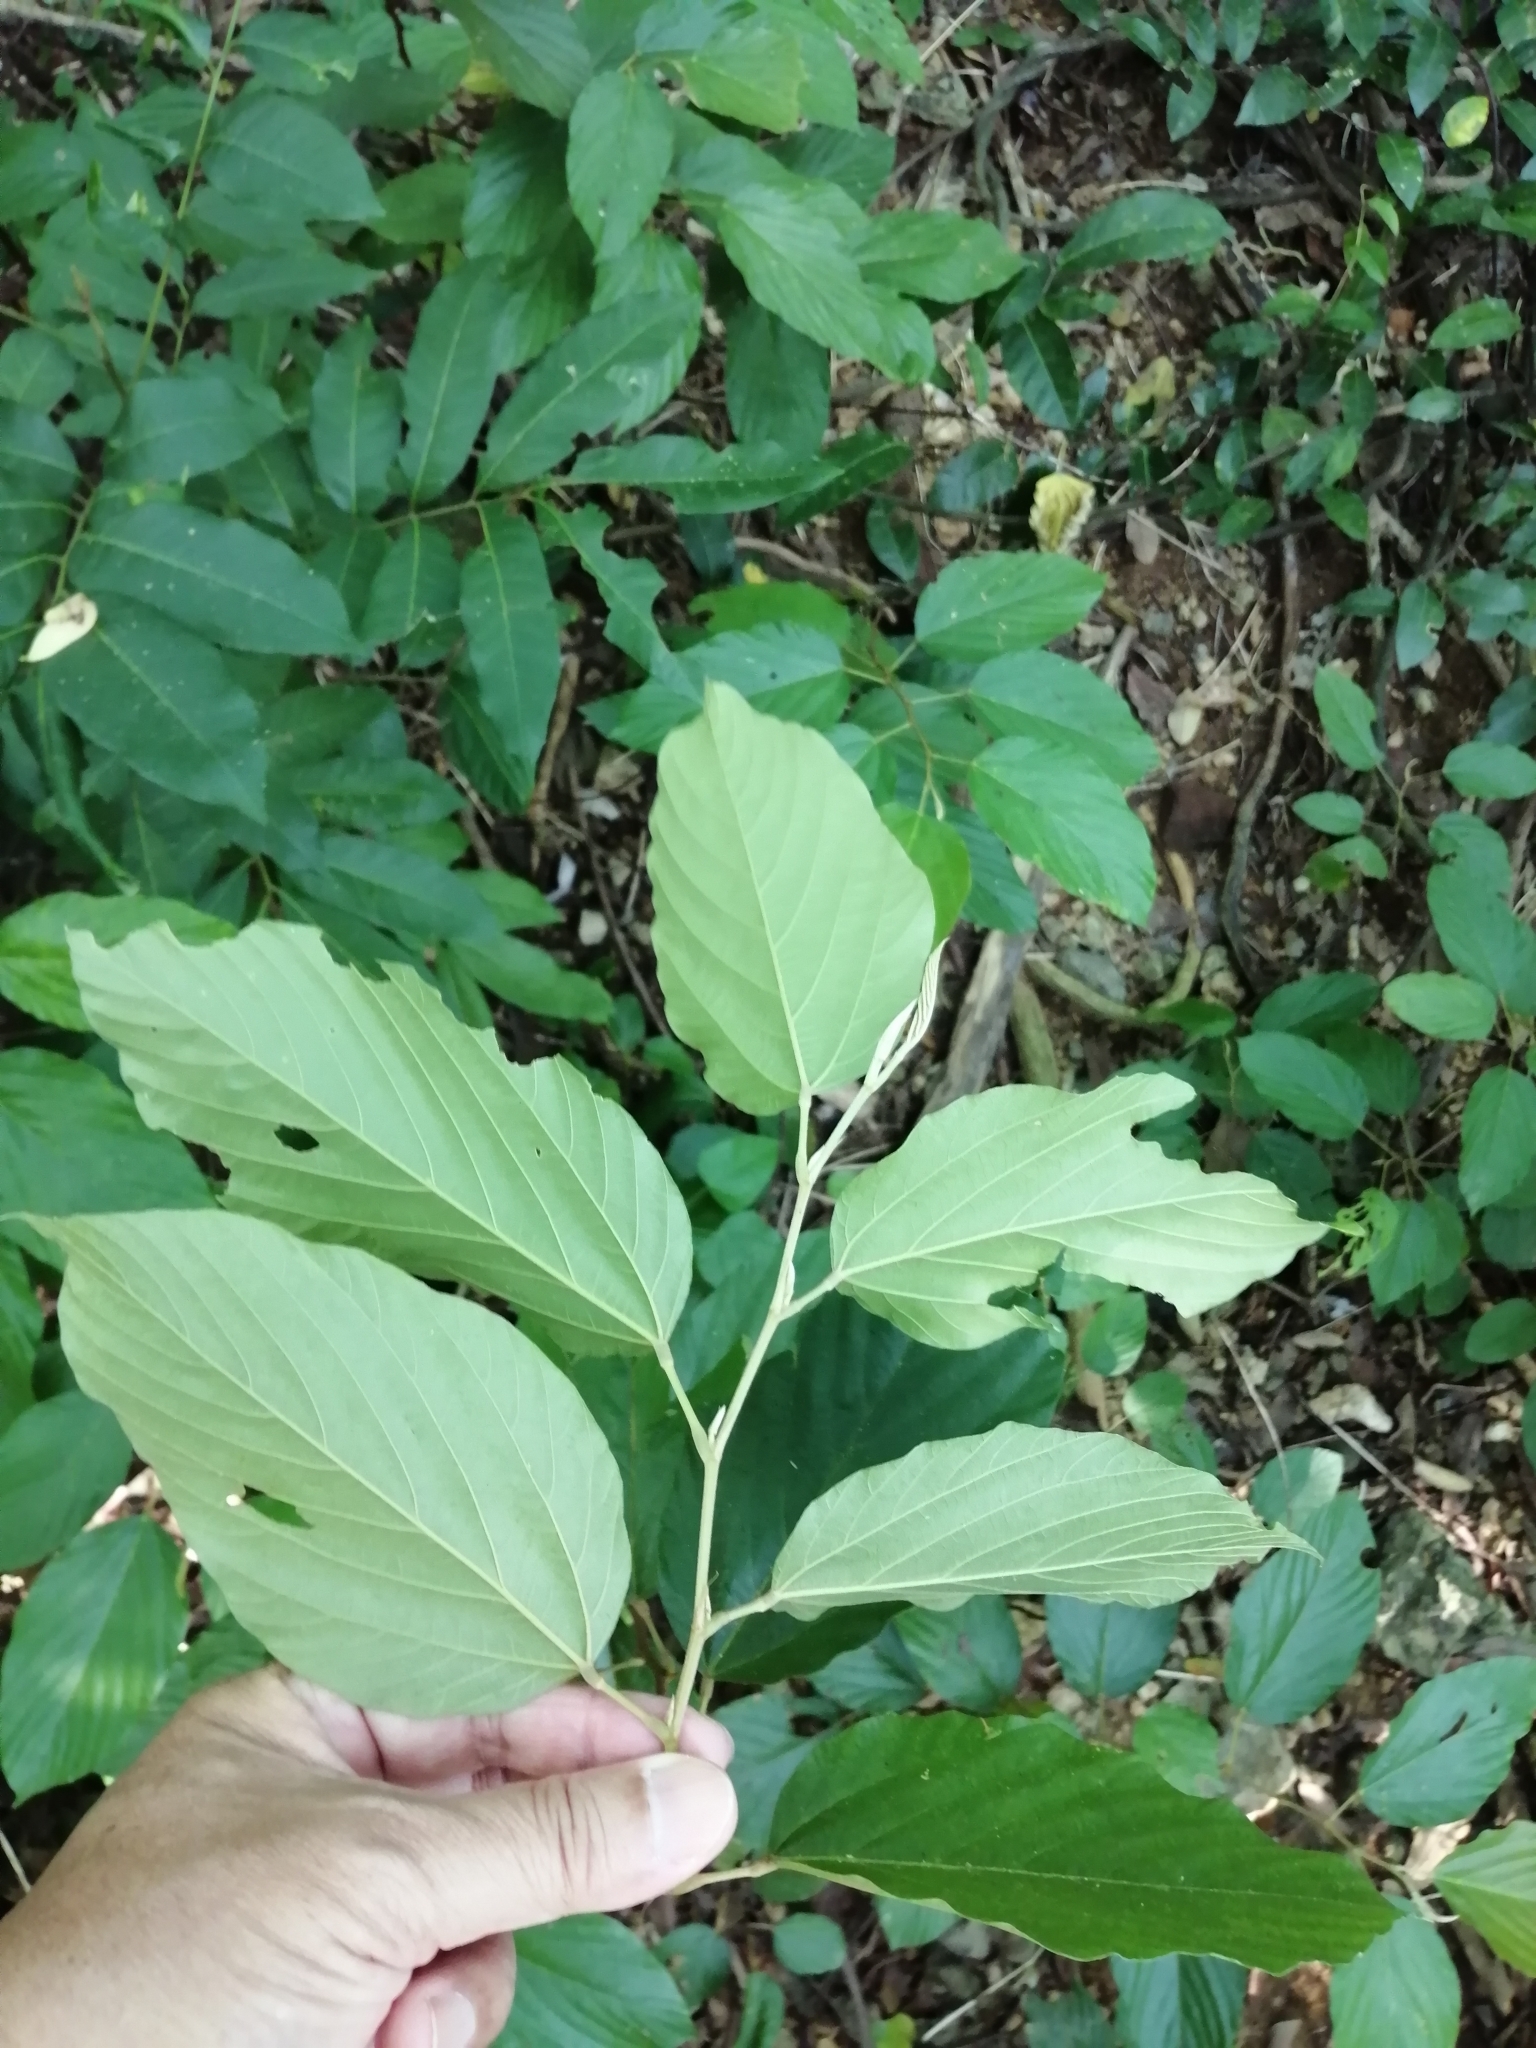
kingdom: Plantae
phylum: Tracheophyta
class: Magnoliopsida
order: Fabales
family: Fabaceae
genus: Flemingia
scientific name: Flemingia strobilifera
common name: Wild hops
